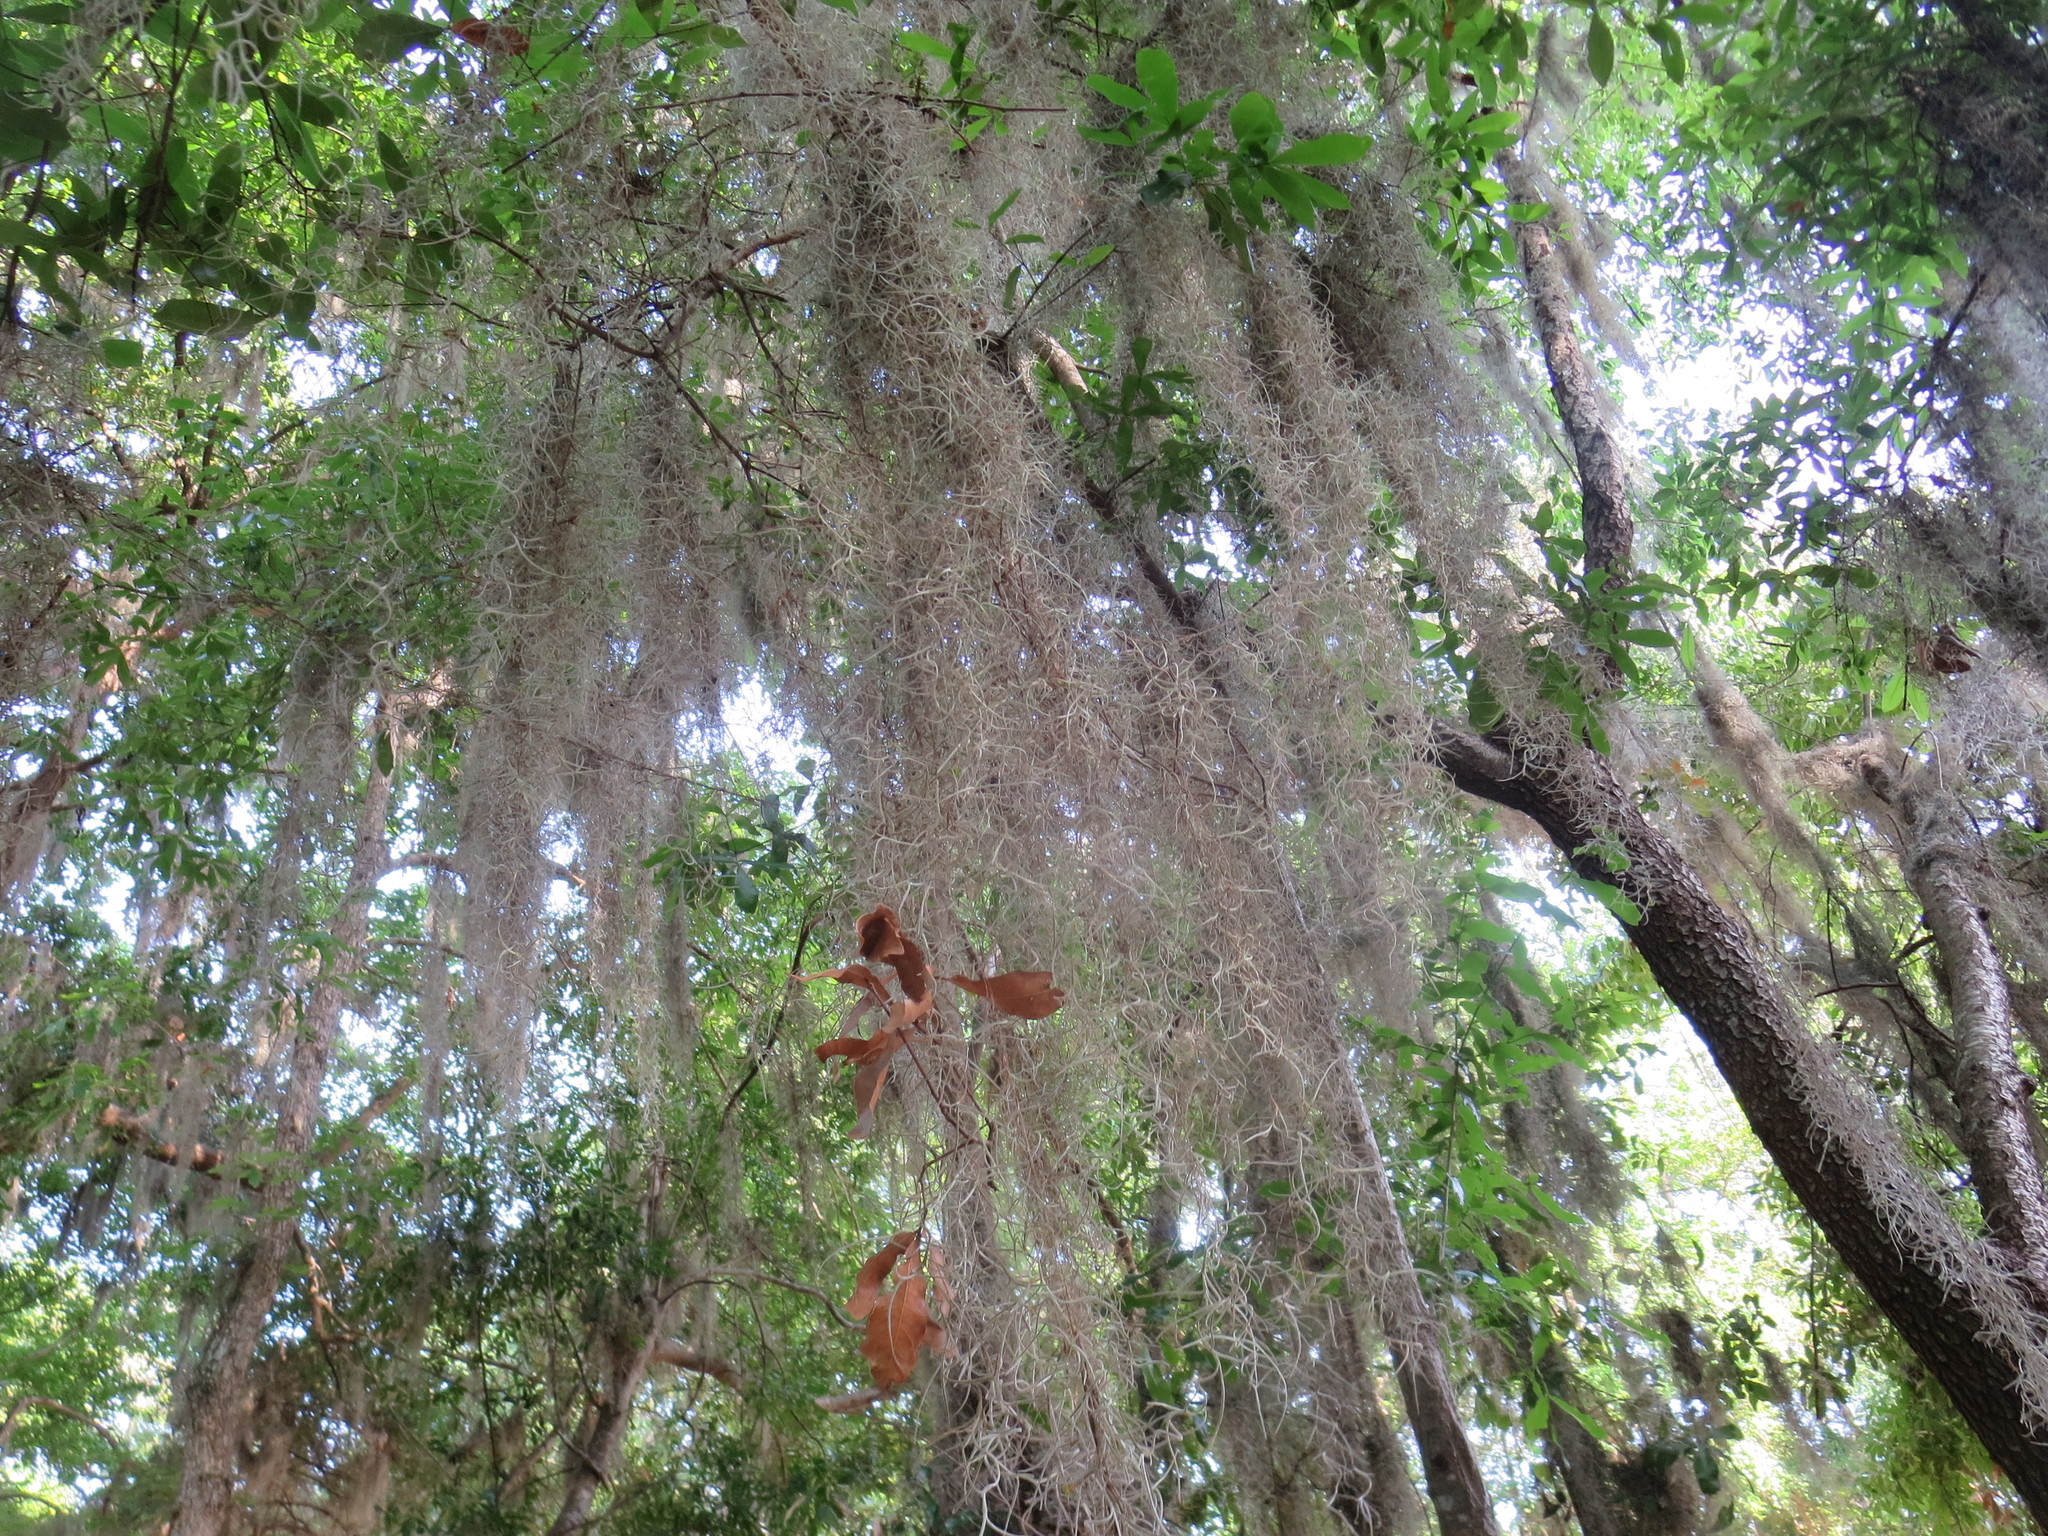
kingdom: Plantae
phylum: Tracheophyta
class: Liliopsida
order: Poales
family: Bromeliaceae
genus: Tillandsia
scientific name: Tillandsia usneoides
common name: Spanish moss
